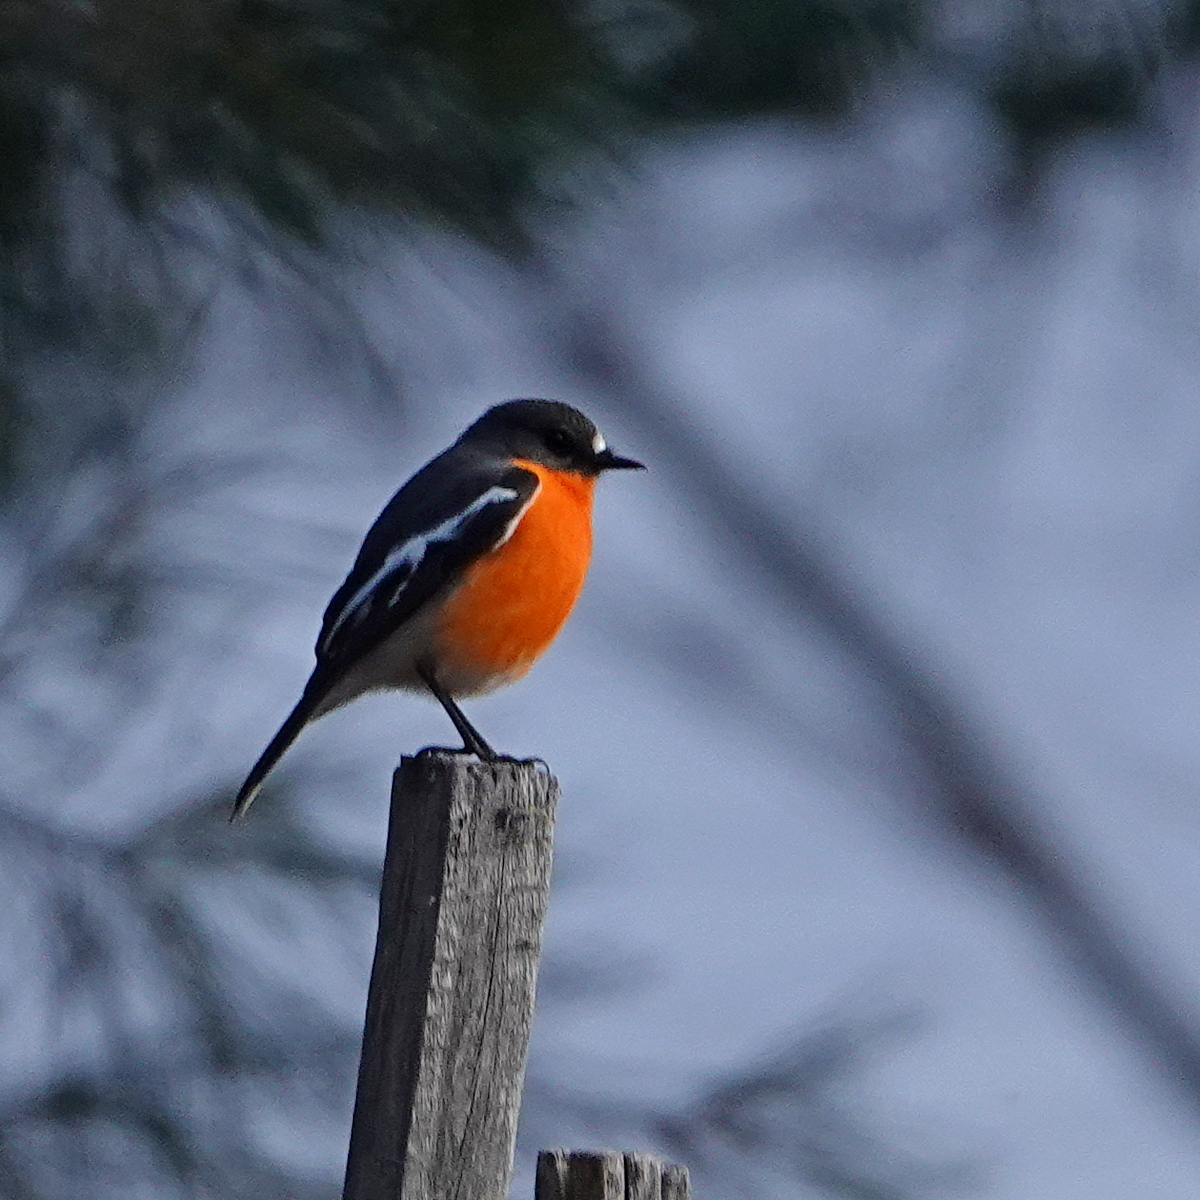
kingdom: Animalia
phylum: Chordata
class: Aves
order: Passeriformes
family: Petroicidae
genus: Petroica
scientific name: Petroica phoenicea
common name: Flame robin
